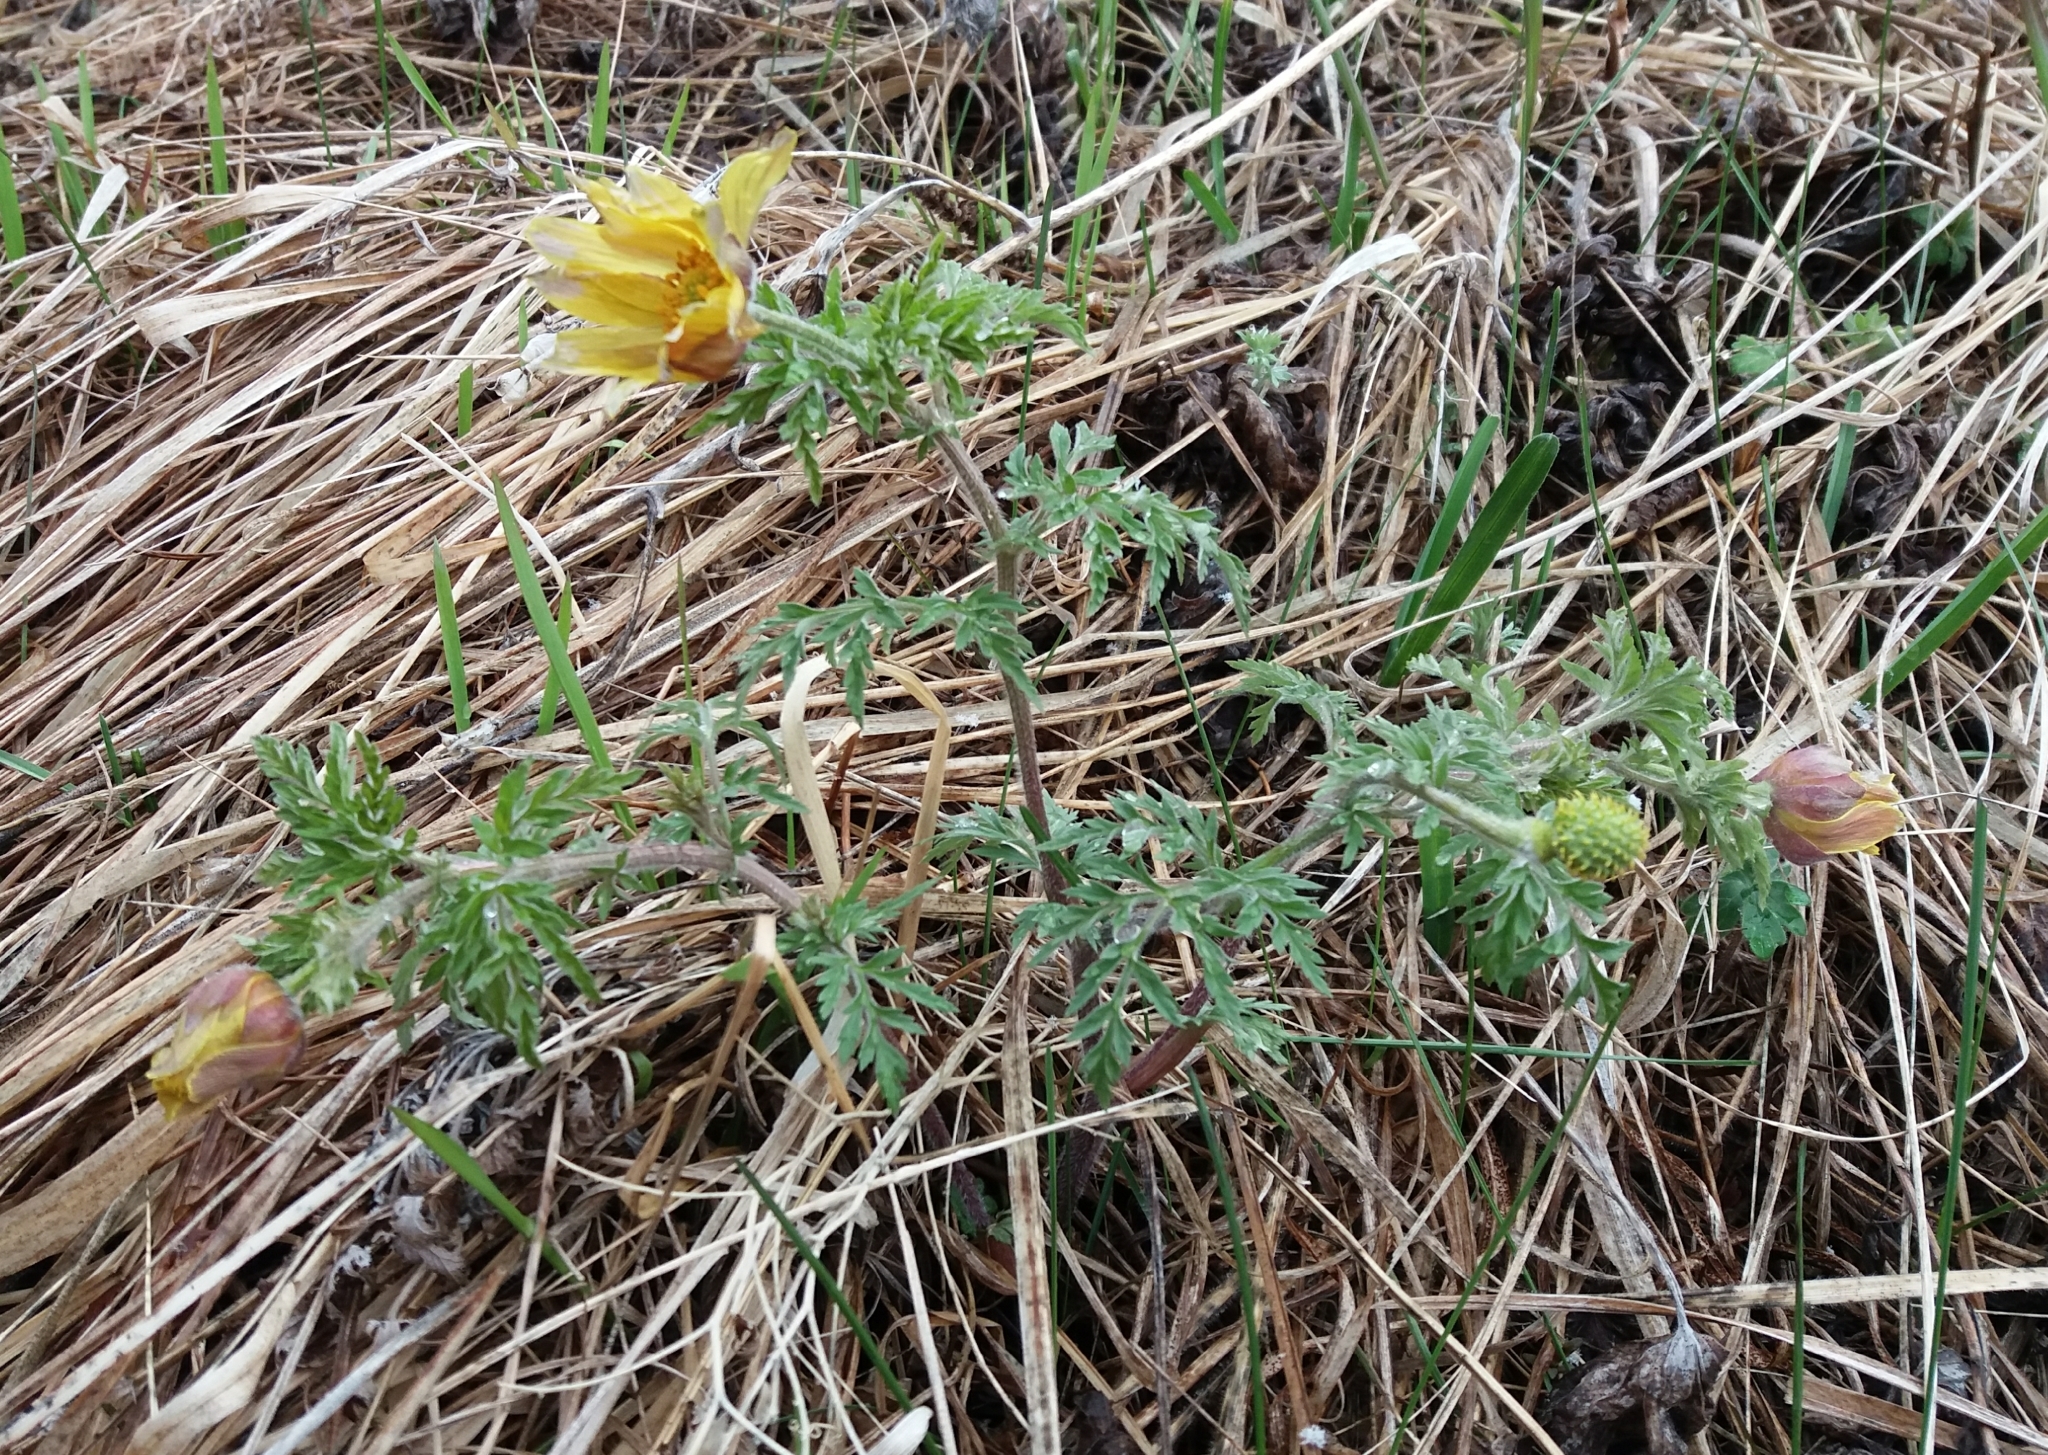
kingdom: Plantae
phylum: Tracheophyta
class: Magnoliopsida
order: Ranunculales
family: Ranunculaceae
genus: Adonis
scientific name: Adonis villosa
